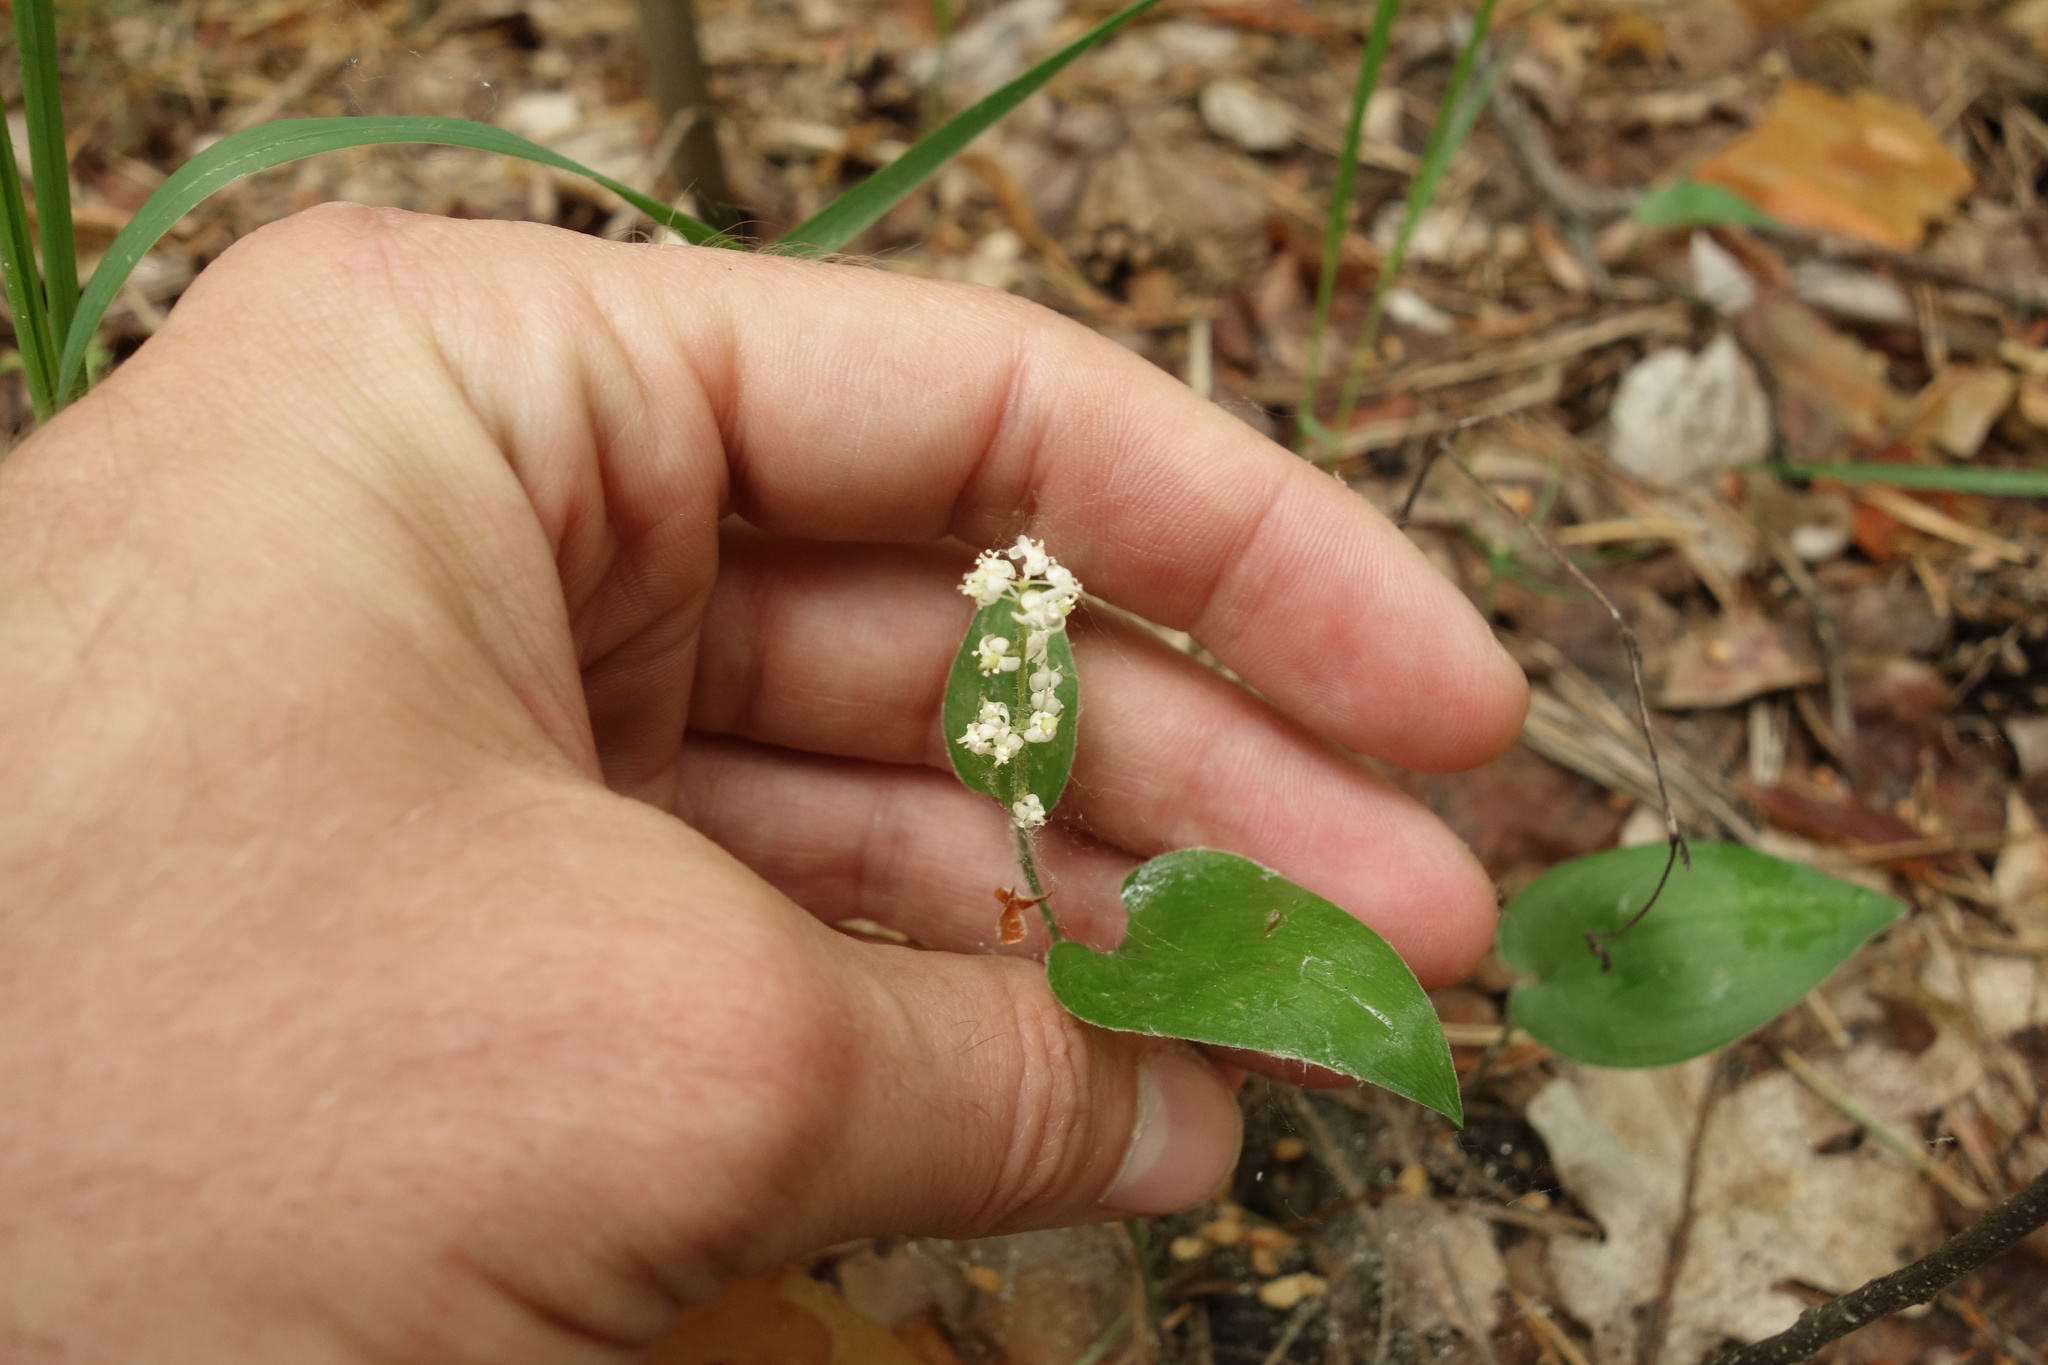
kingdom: Plantae
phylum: Tracheophyta
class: Liliopsida
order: Asparagales
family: Asparagaceae
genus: Maianthemum
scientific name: Maianthemum bifolium
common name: May lily
